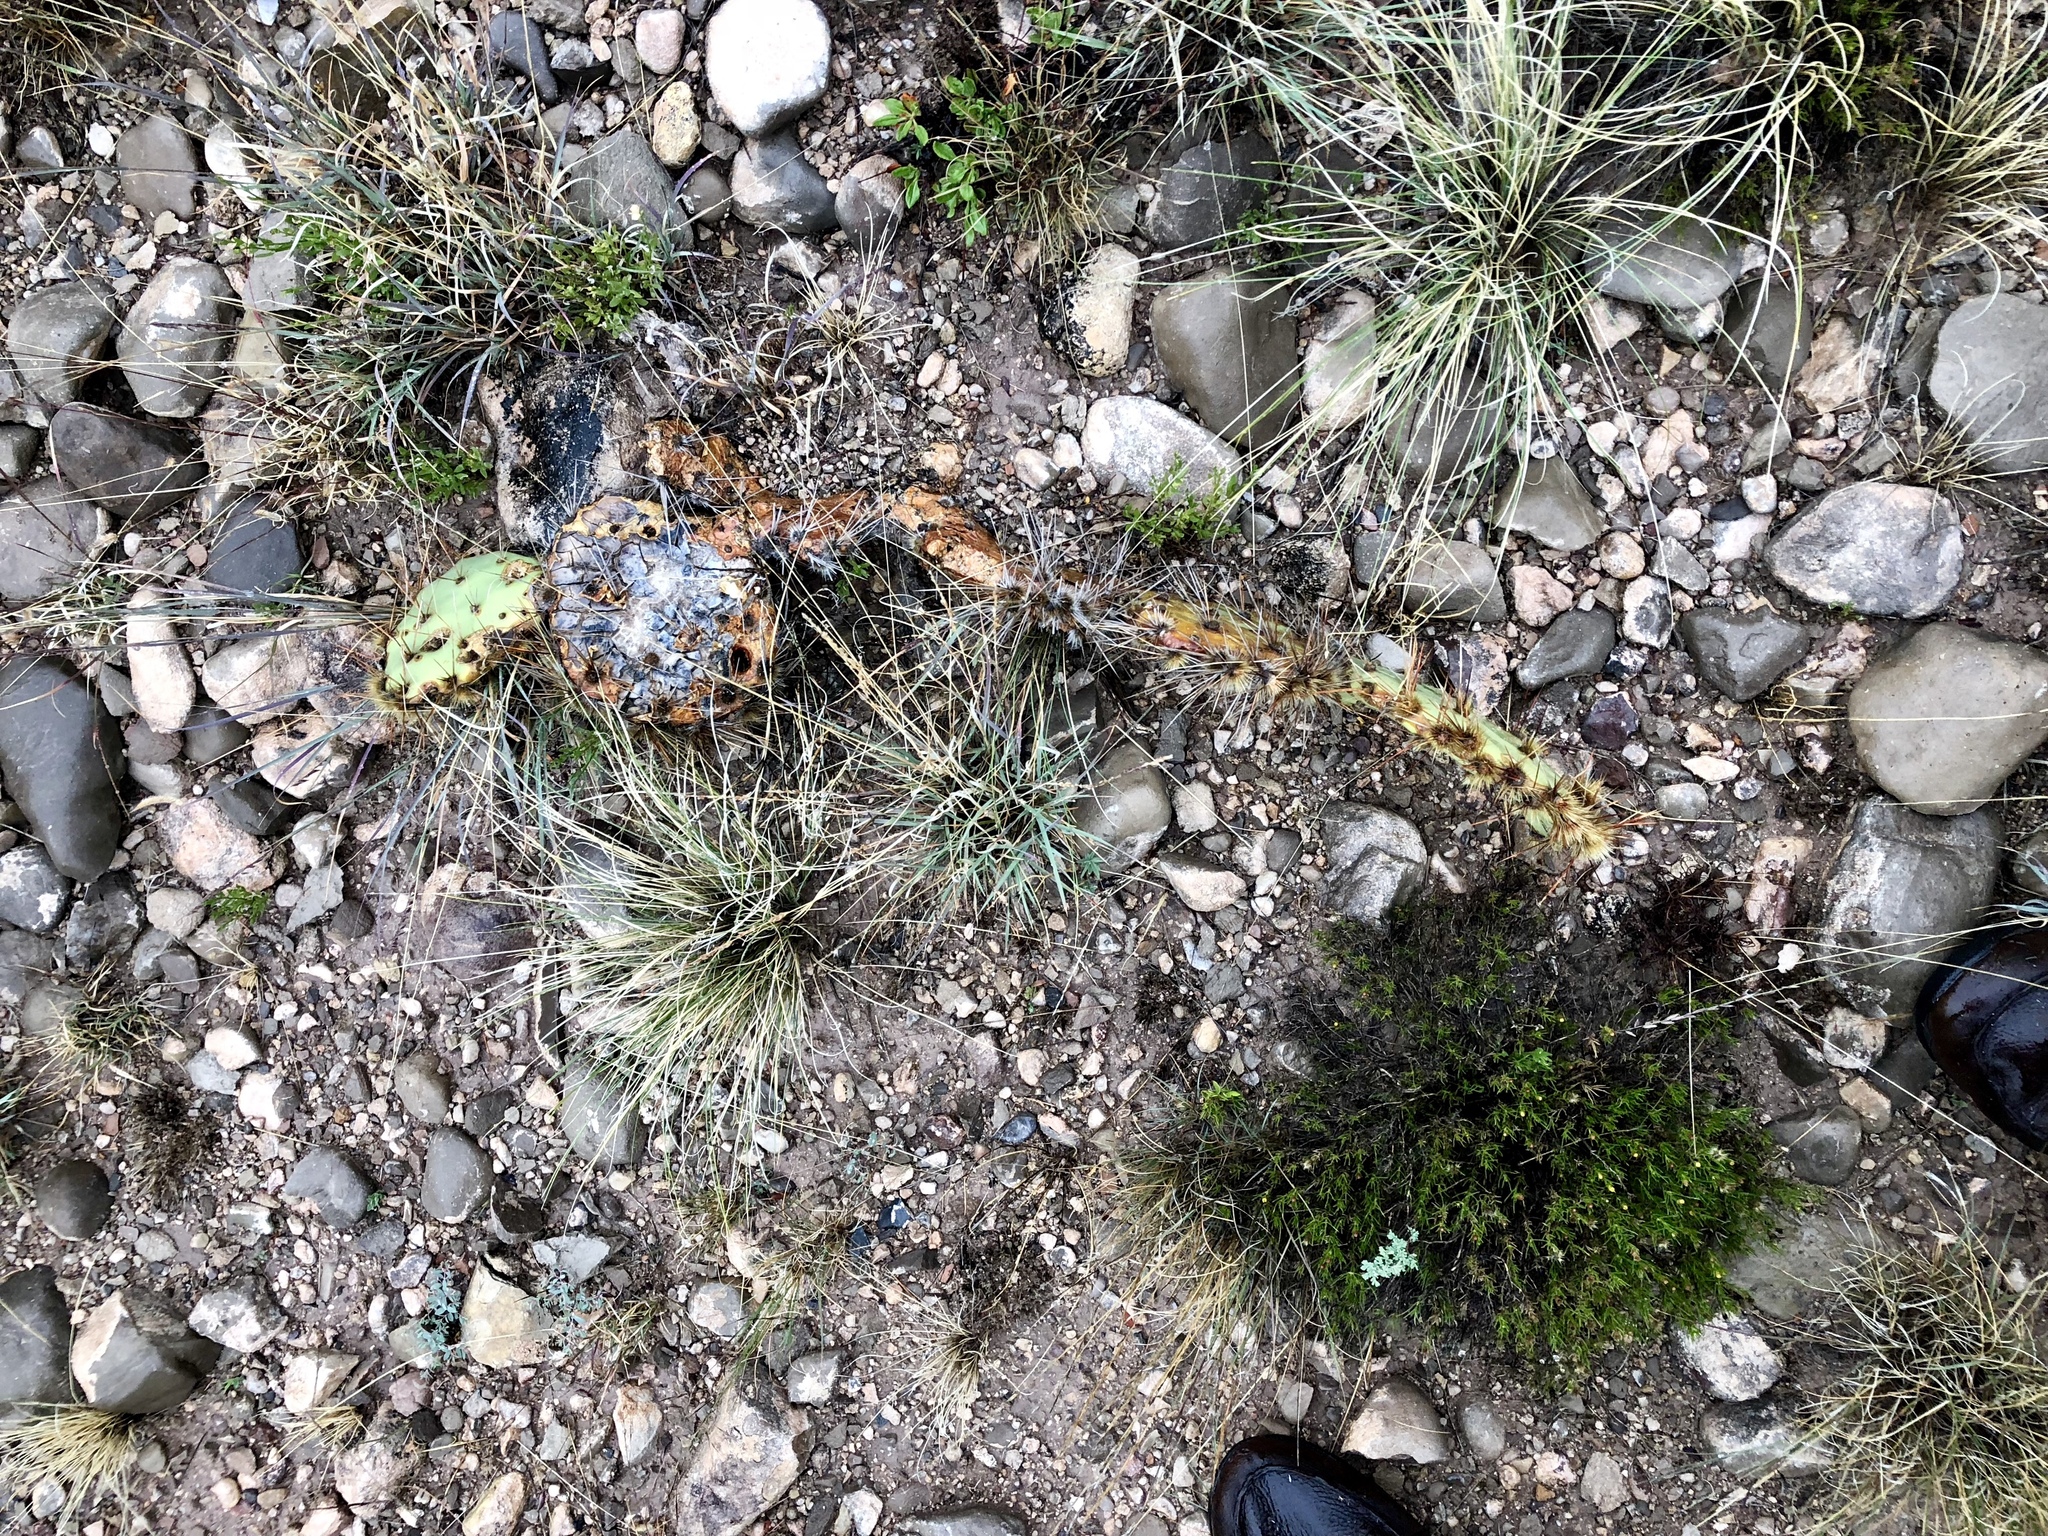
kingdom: Plantae
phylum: Tracheophyta
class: Magnoliopsida
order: Caryophyllales
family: Cactaceae
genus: Opuntia
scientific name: Opuntia engelmannii
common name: Cactus-apple
